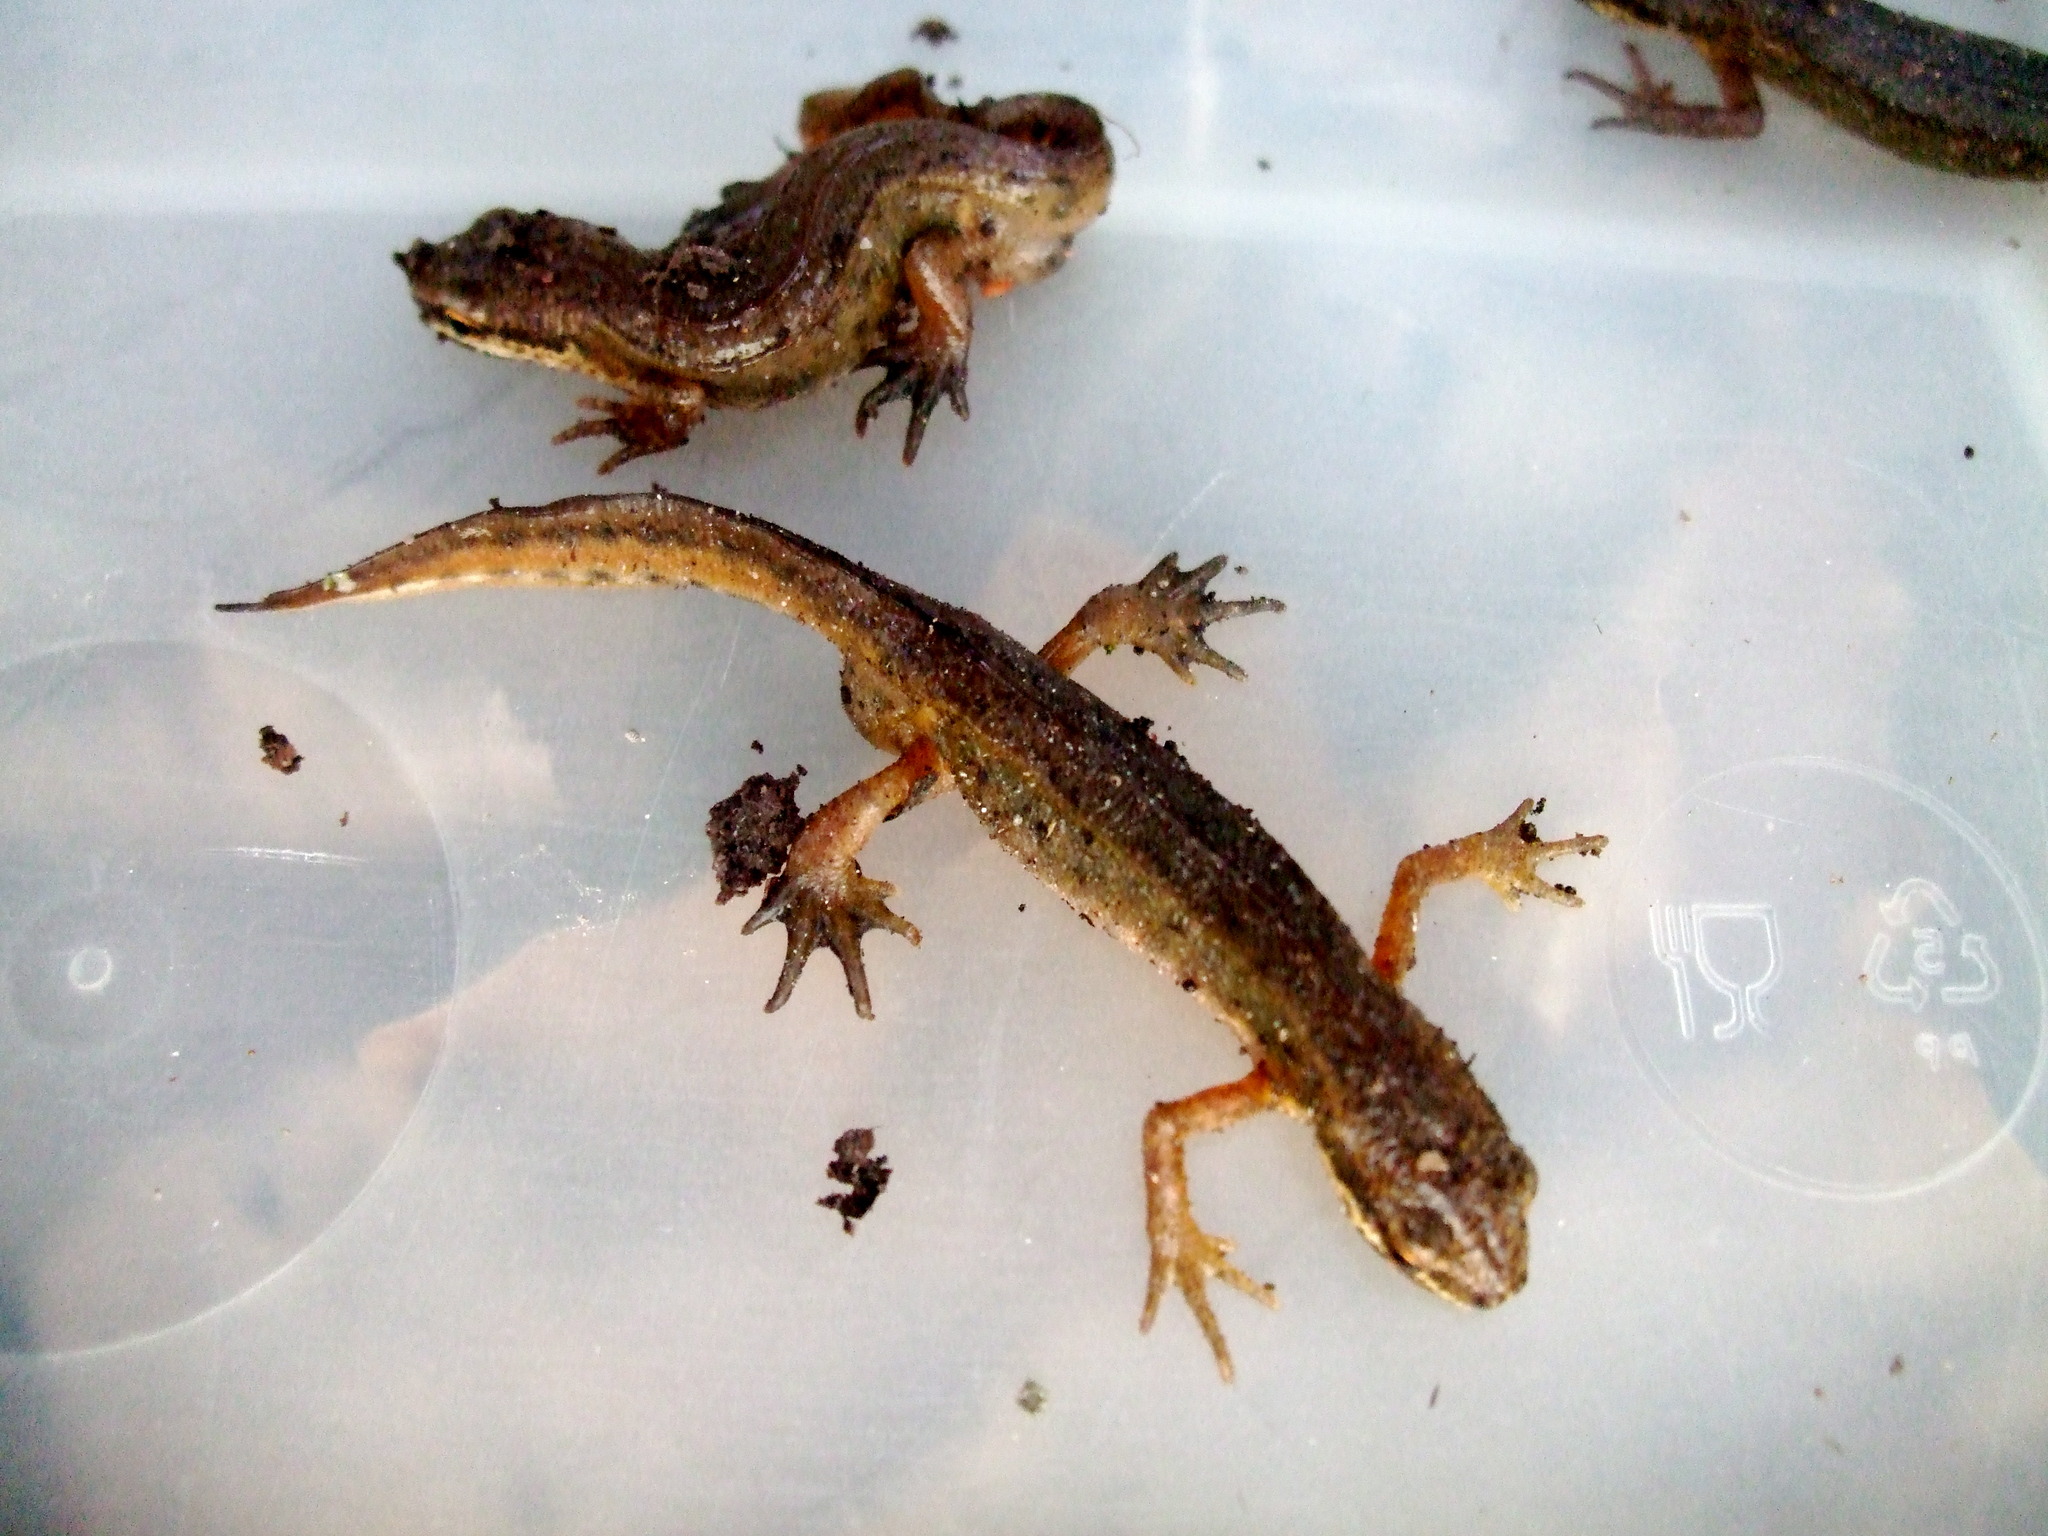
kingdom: Animalia
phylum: Chordata
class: Amphibia
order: Caudata
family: Salamandridae
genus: Lissotriton
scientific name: Lissotriton helveticus
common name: Palmate newt
